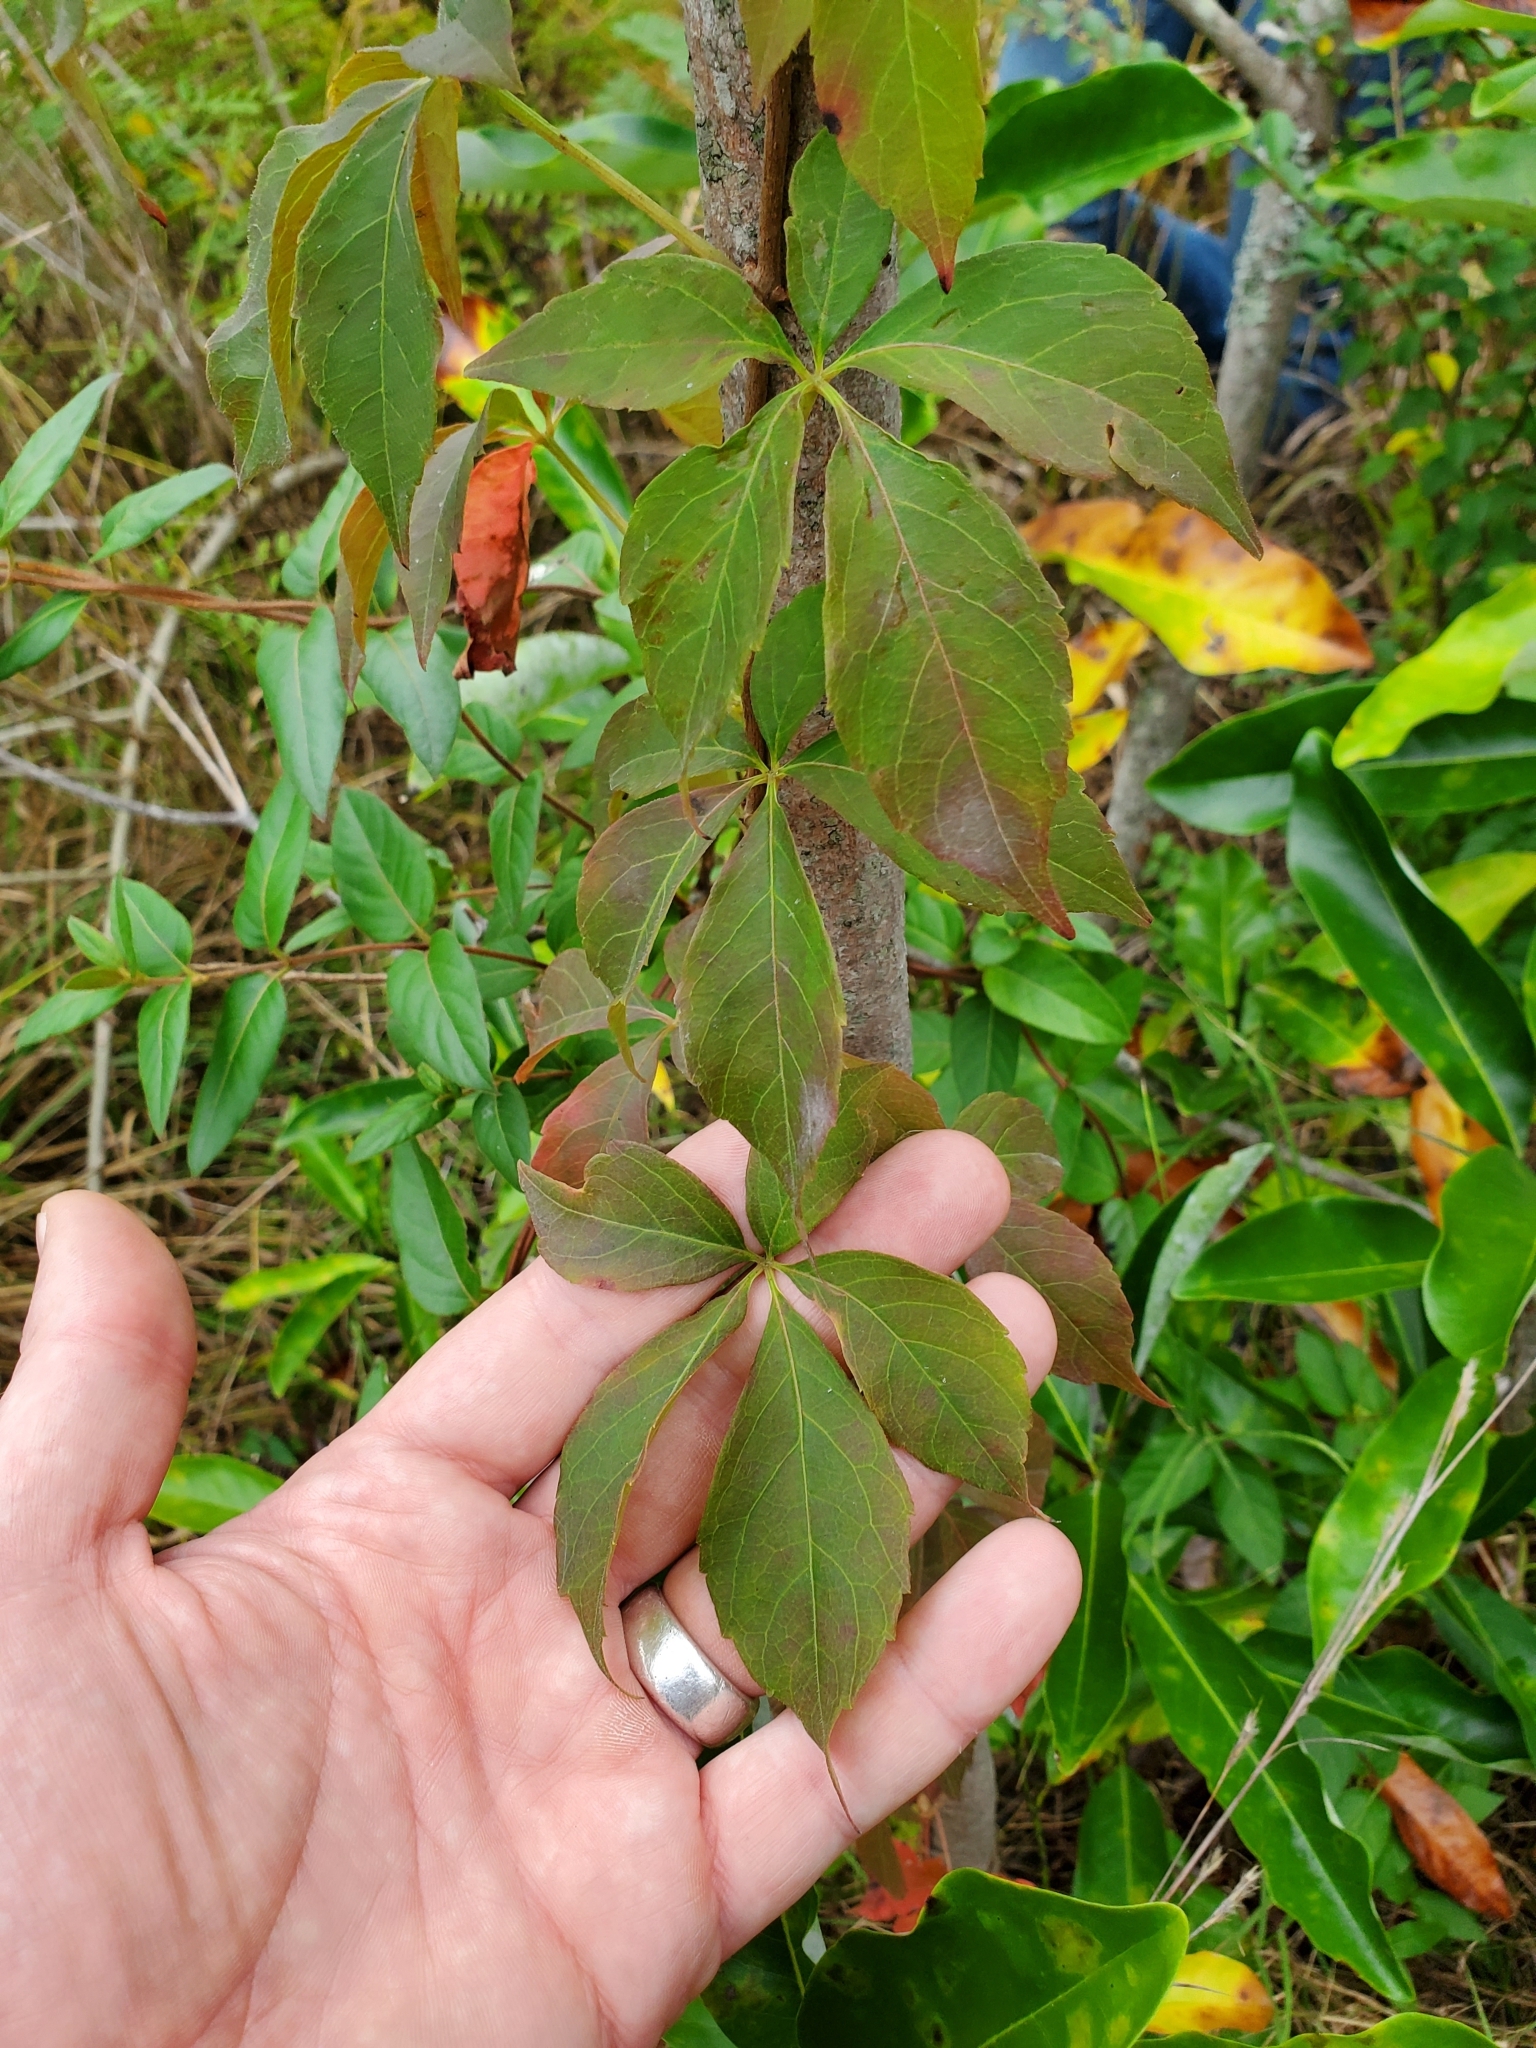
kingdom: Plantae
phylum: Tracheophyta
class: Magnoliopsida
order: Vitales
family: Vitaceae
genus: Parthenocissus
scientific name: Parthenocissus quinquefolia
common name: Virginia-creeper
